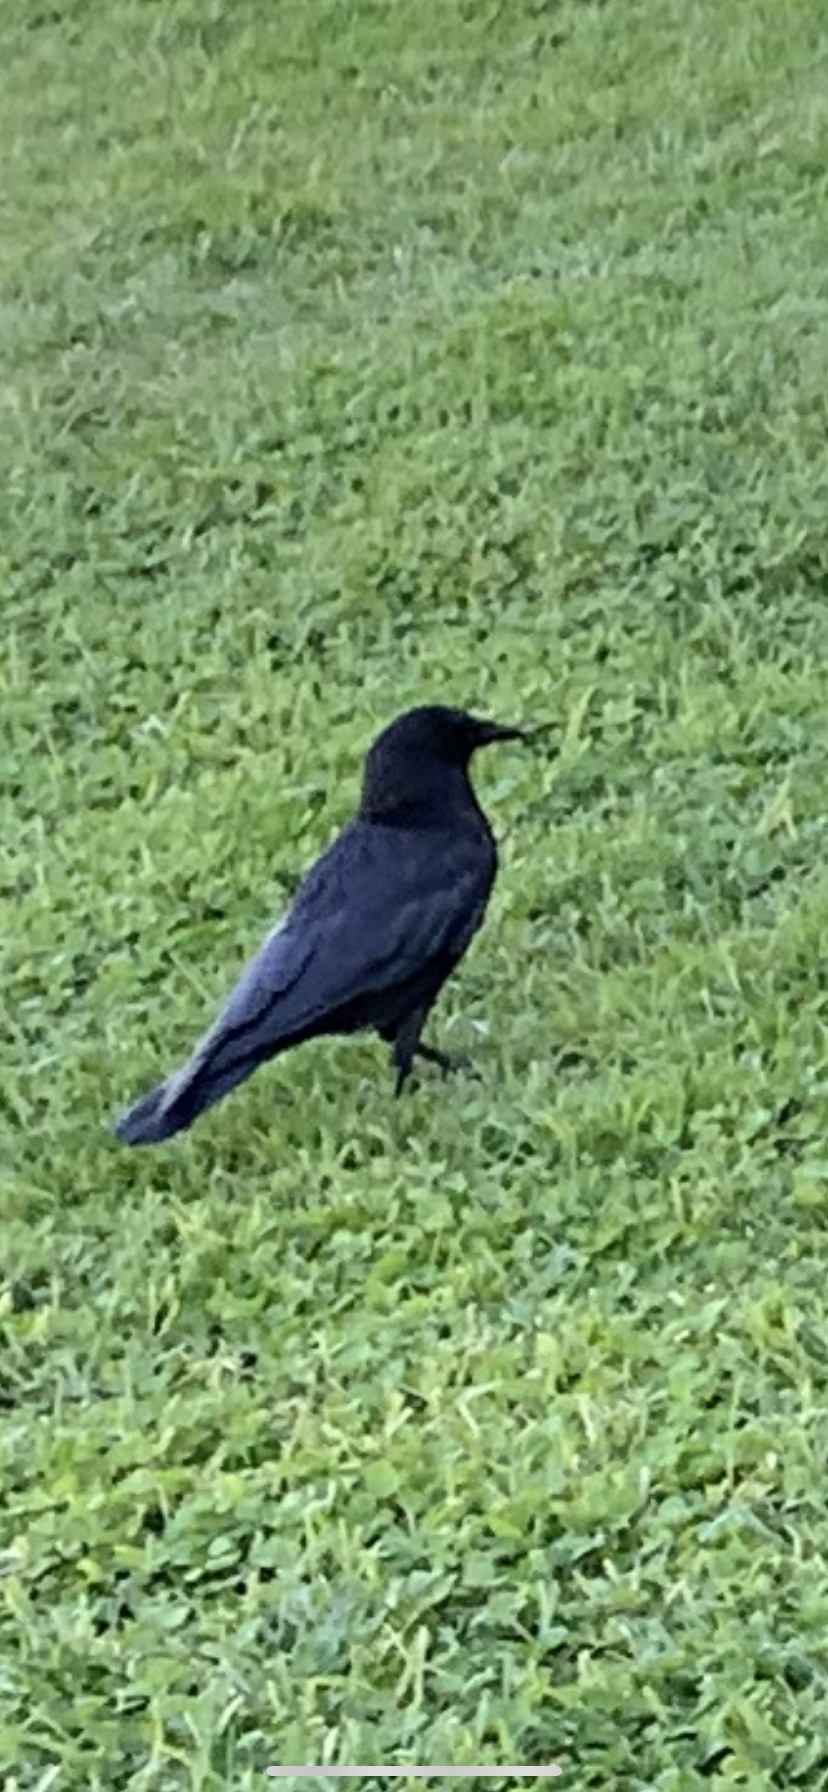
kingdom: Animalia
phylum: Chordata
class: Aves
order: Passeriformes
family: Corvidae
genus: Corvus
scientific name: Corvus brachyrhynchos
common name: American crow
